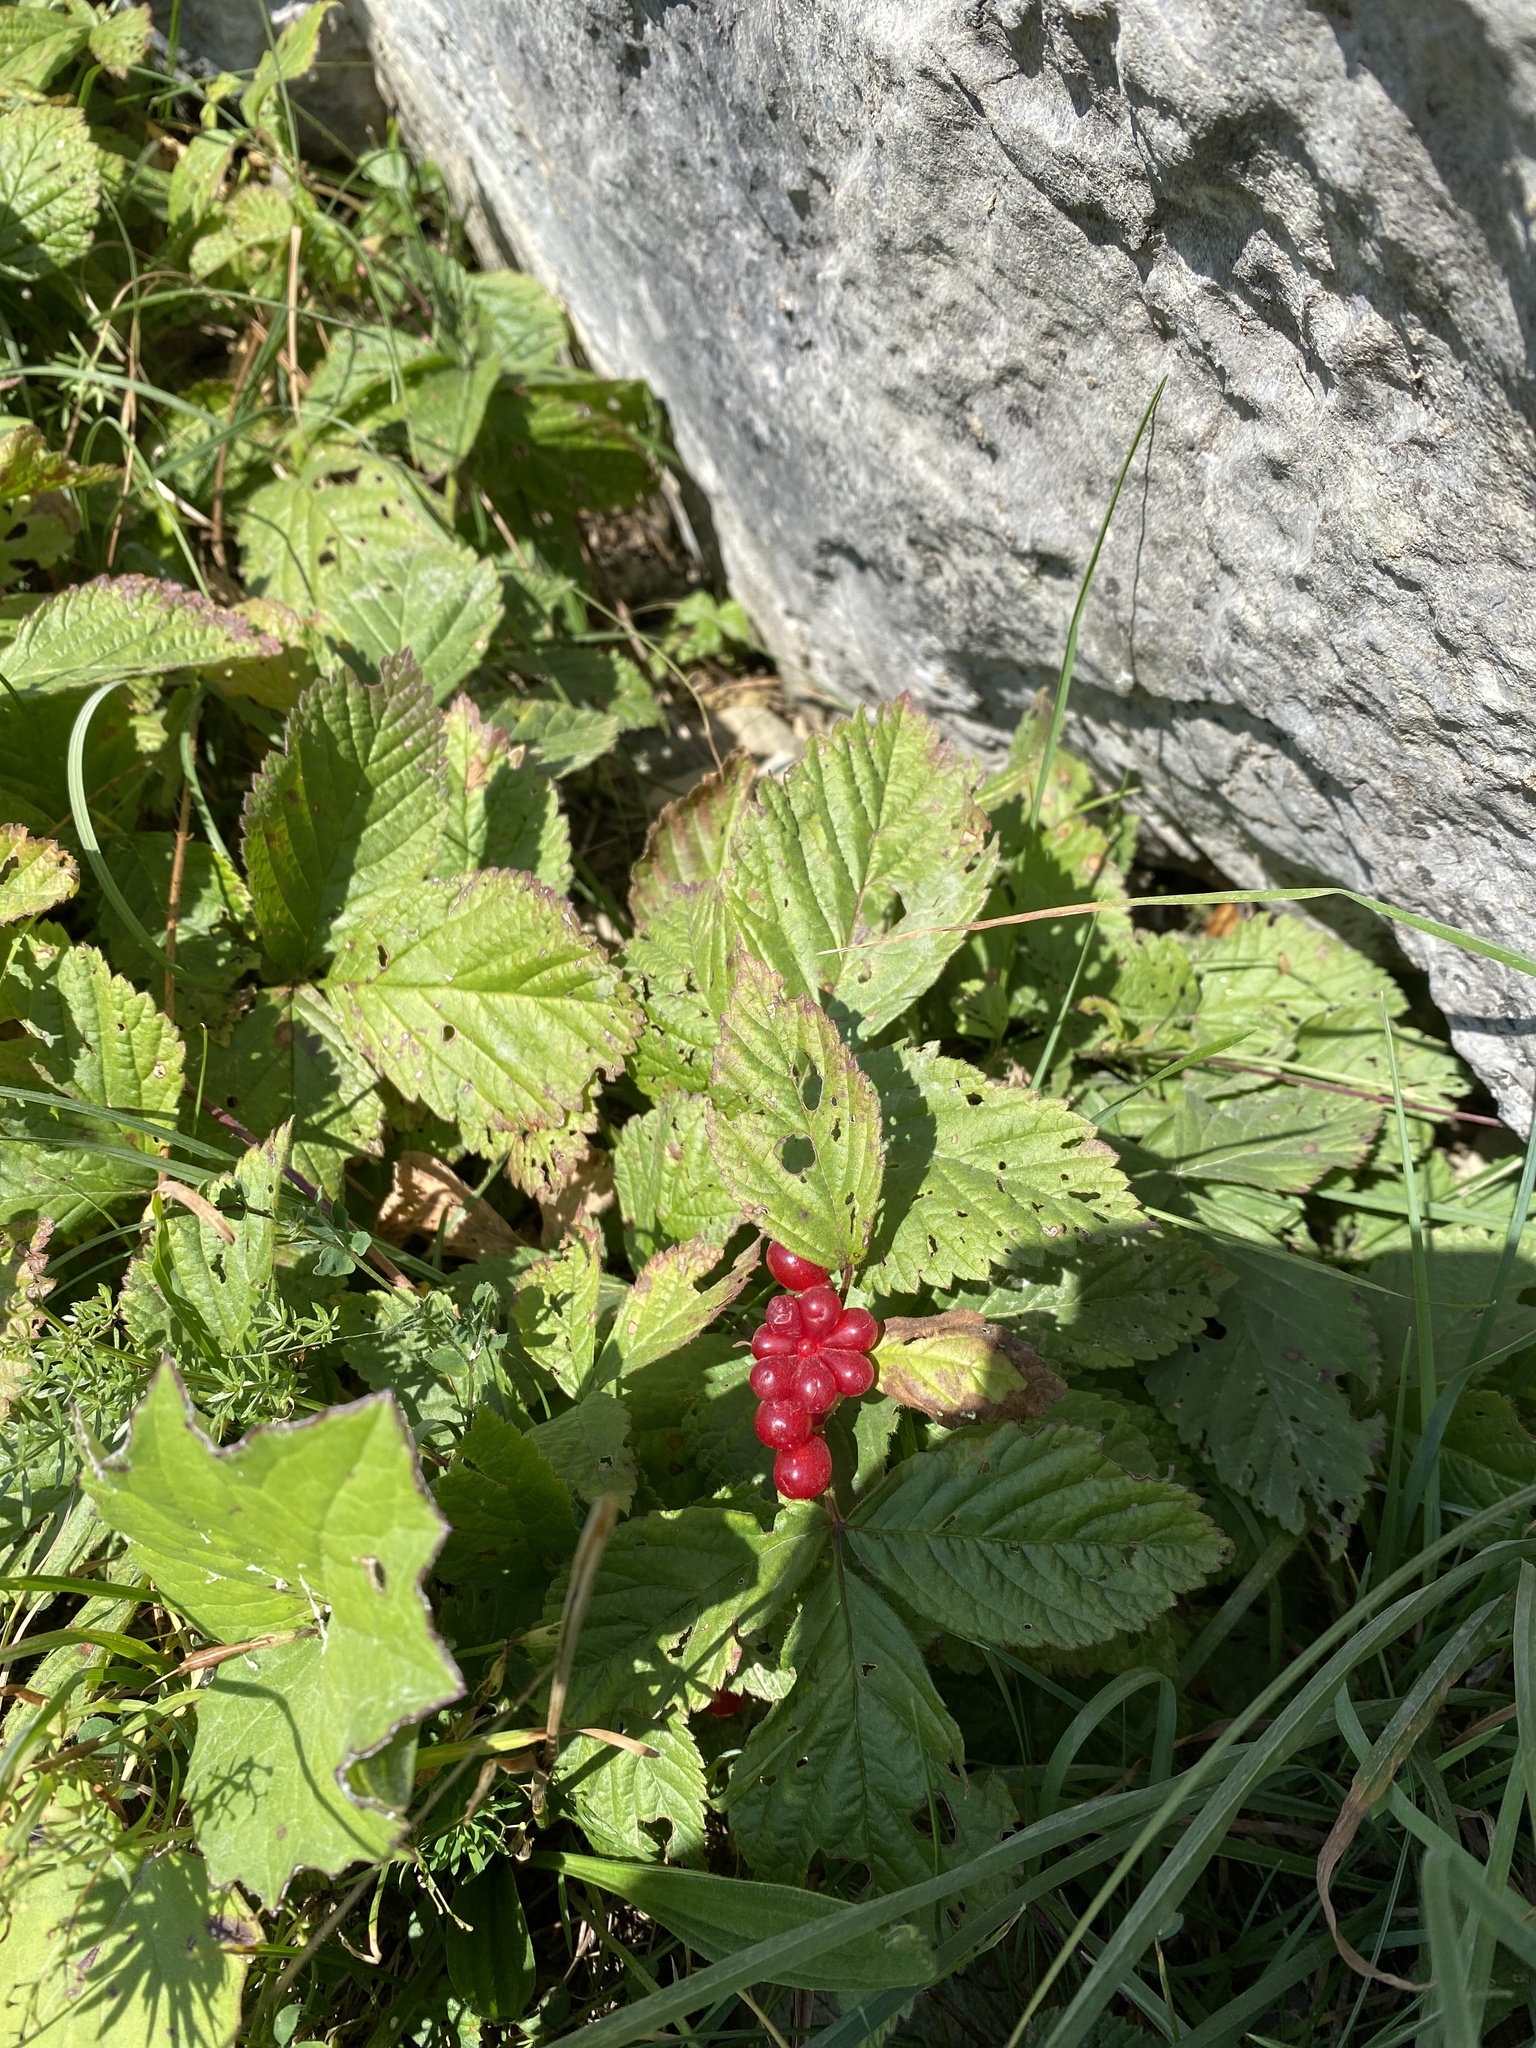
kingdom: Plantae
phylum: Tracheophyta
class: Magnoliopsida
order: Rosales
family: Rosaceae
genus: Rubus
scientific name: Rubus saxatilis
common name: Stone bramble
